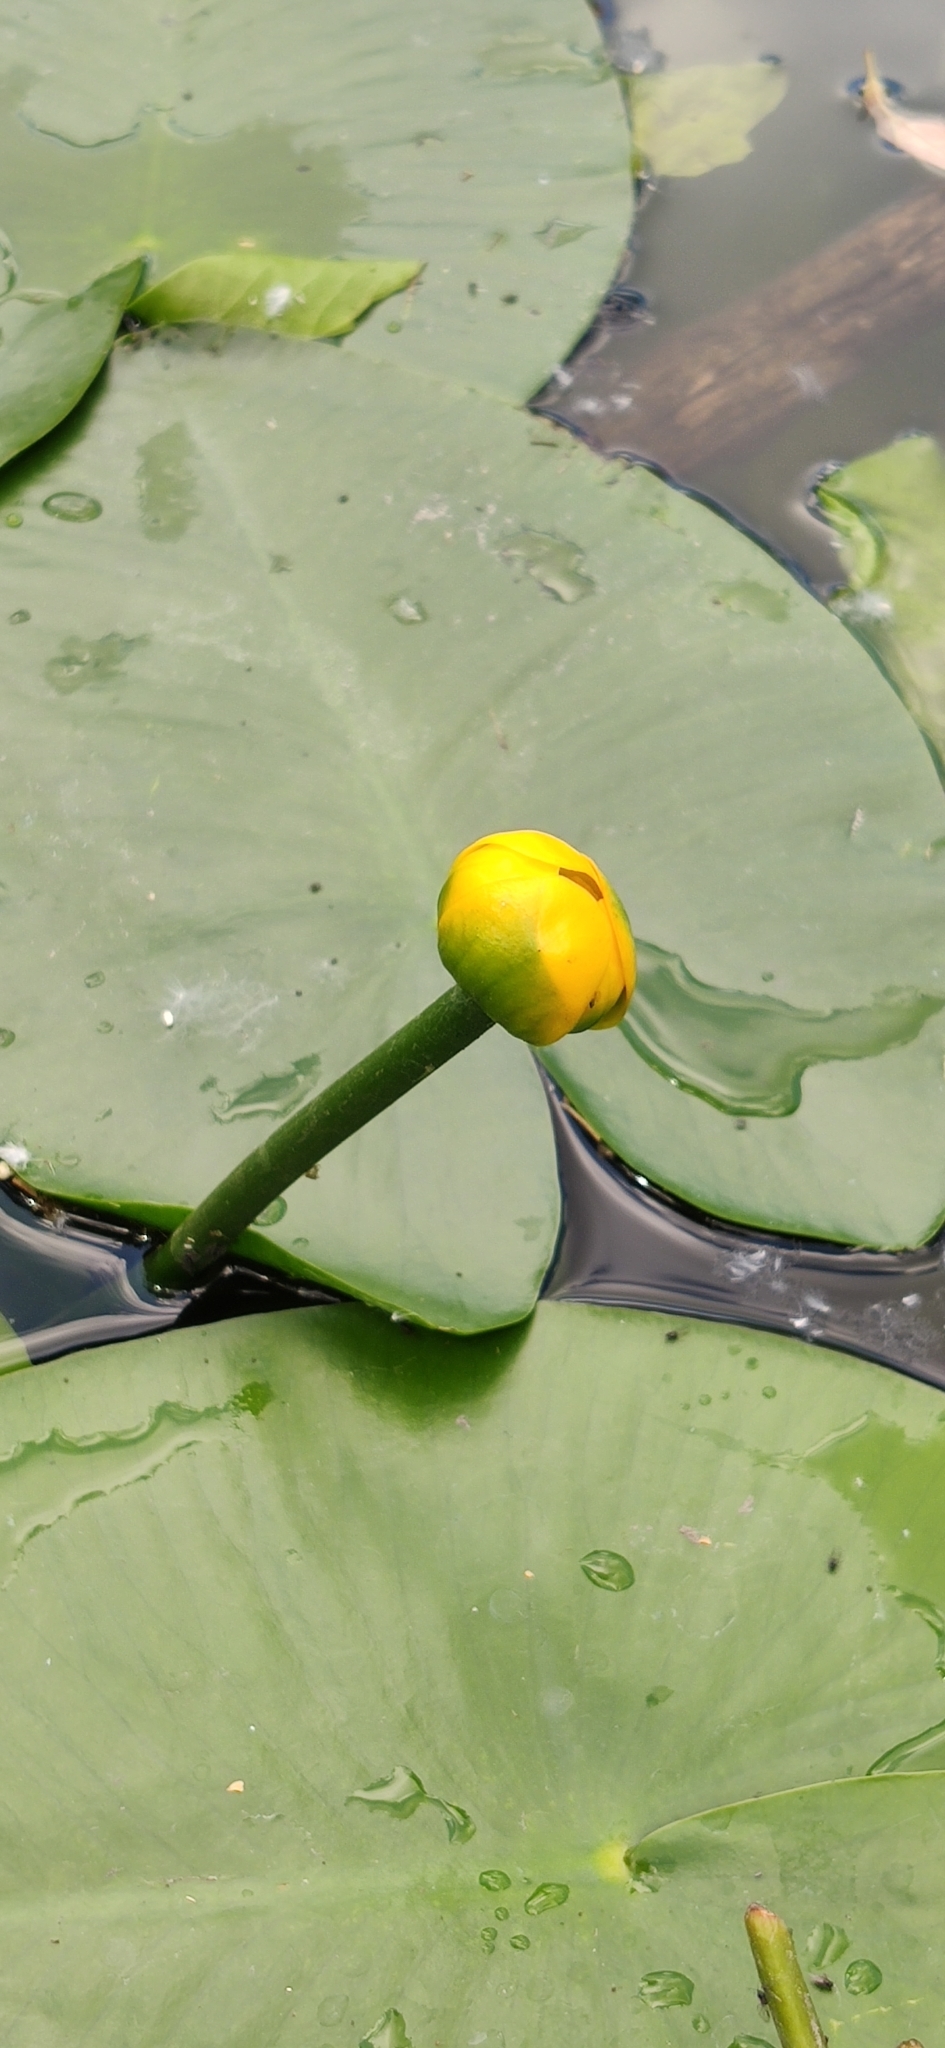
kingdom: Plantae
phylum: Tracheophyta
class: Magnoliopsida
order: Nymphaeales
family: Nymphaeaceae
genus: Nuphar
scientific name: Nuphar lutea
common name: Yellow water-lily
